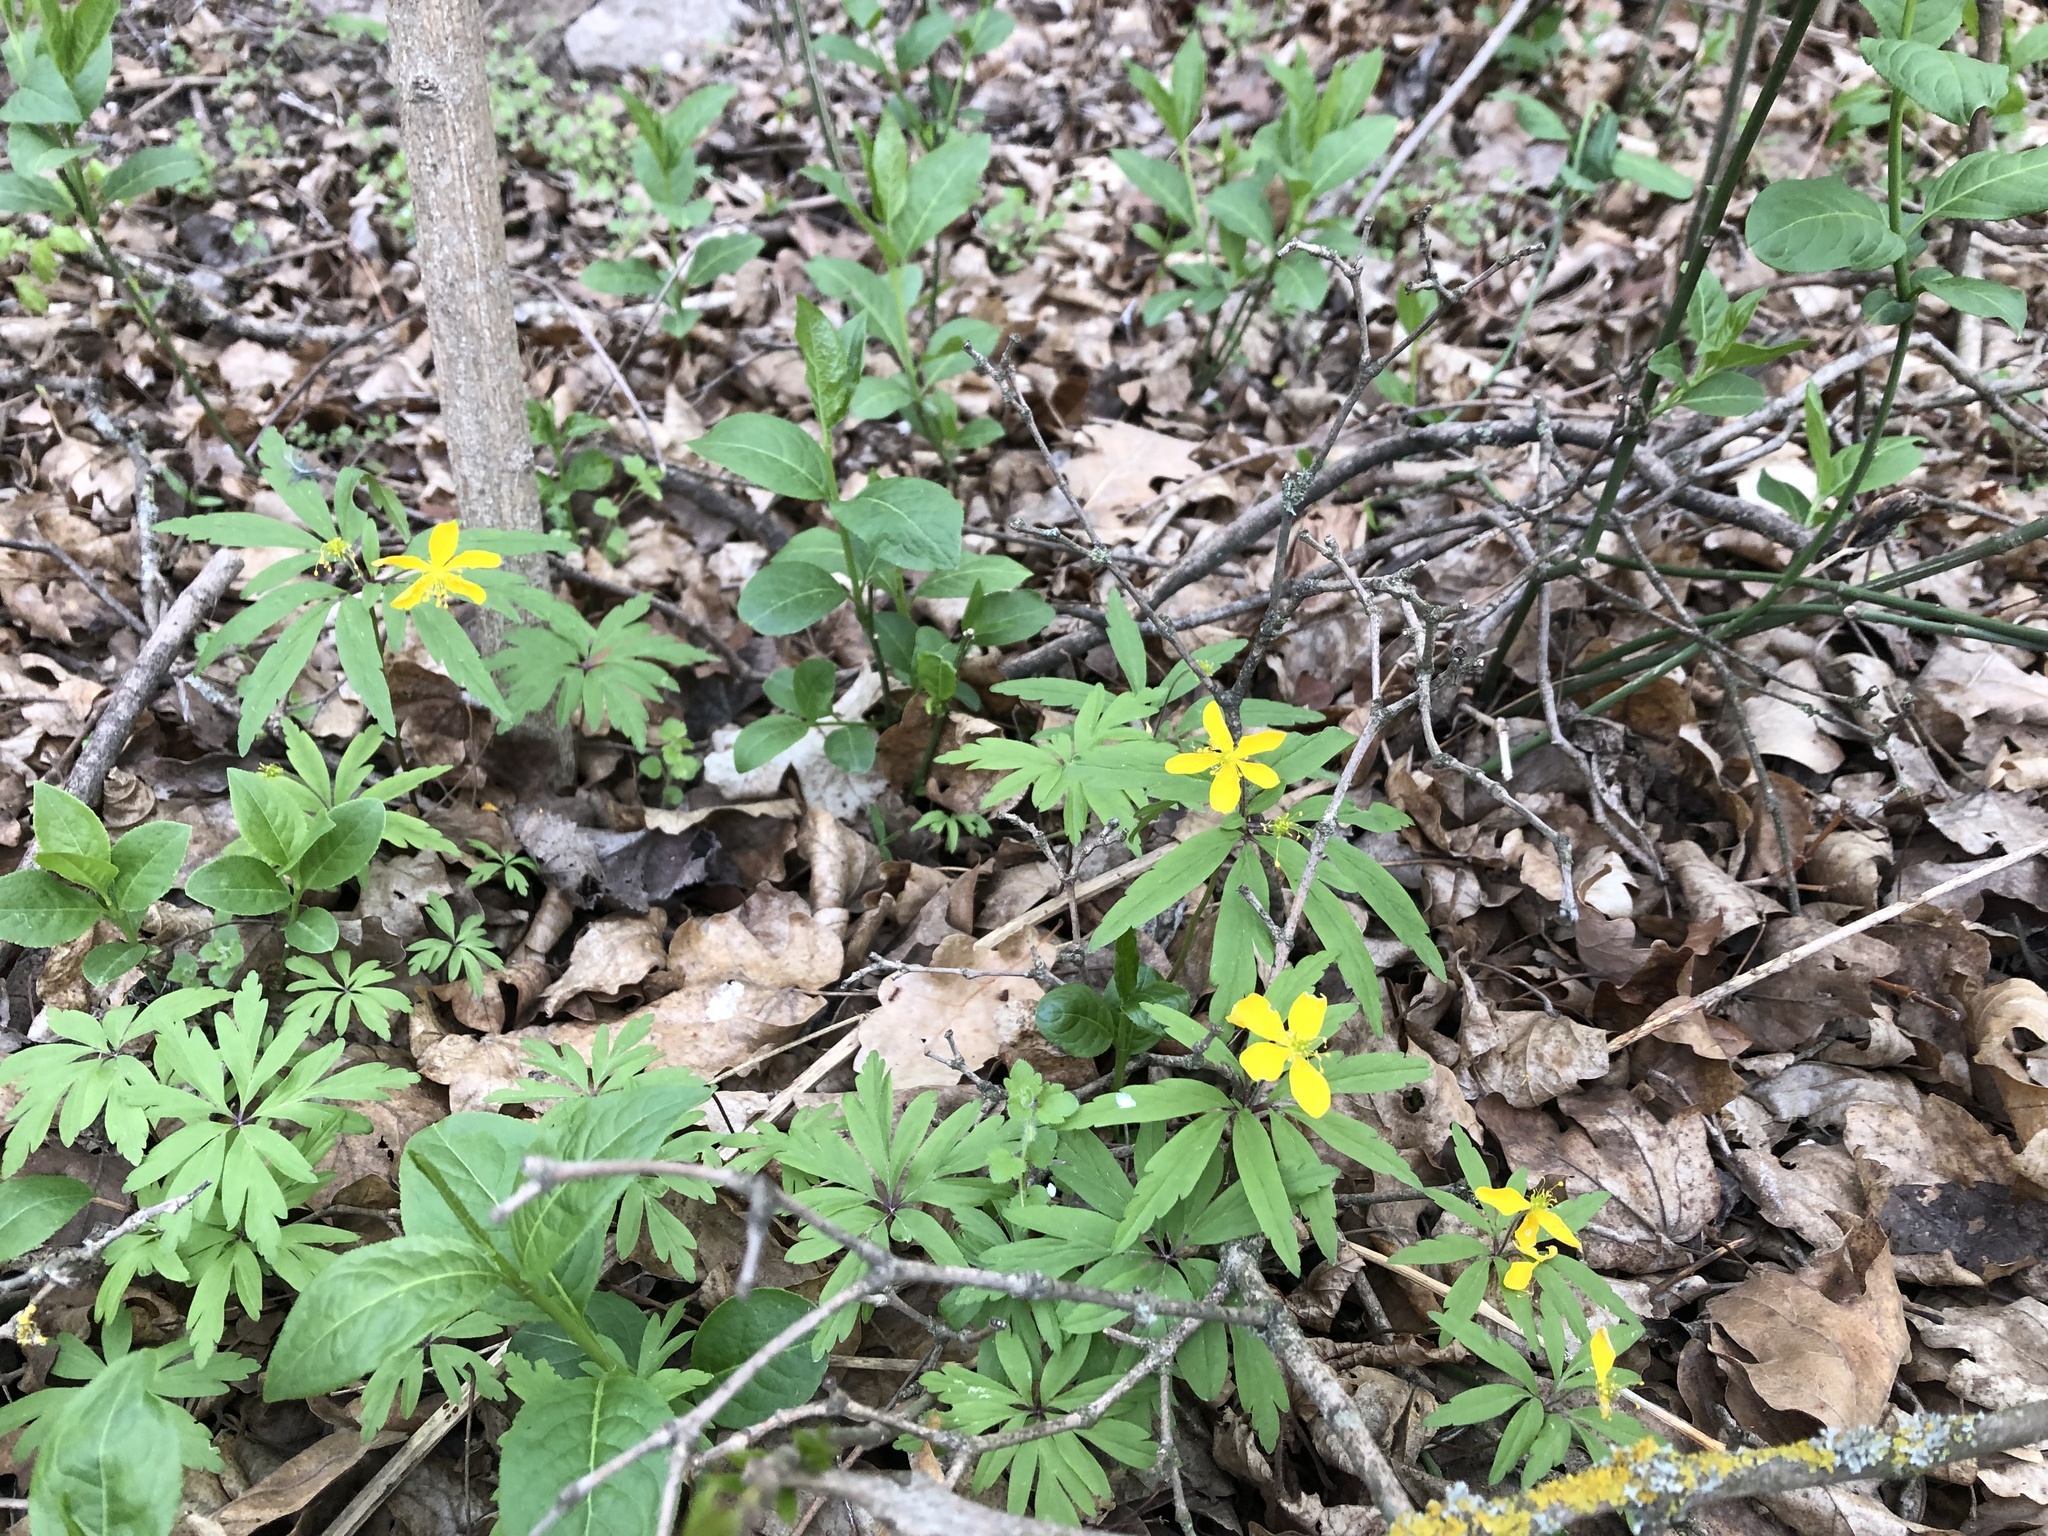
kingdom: Plantae
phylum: Tracheophyta
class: Magnoliopsida
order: Ranunculales
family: Ranunculaceae
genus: Anemone
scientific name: Anemone ranunculoides
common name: Yellow anemone
